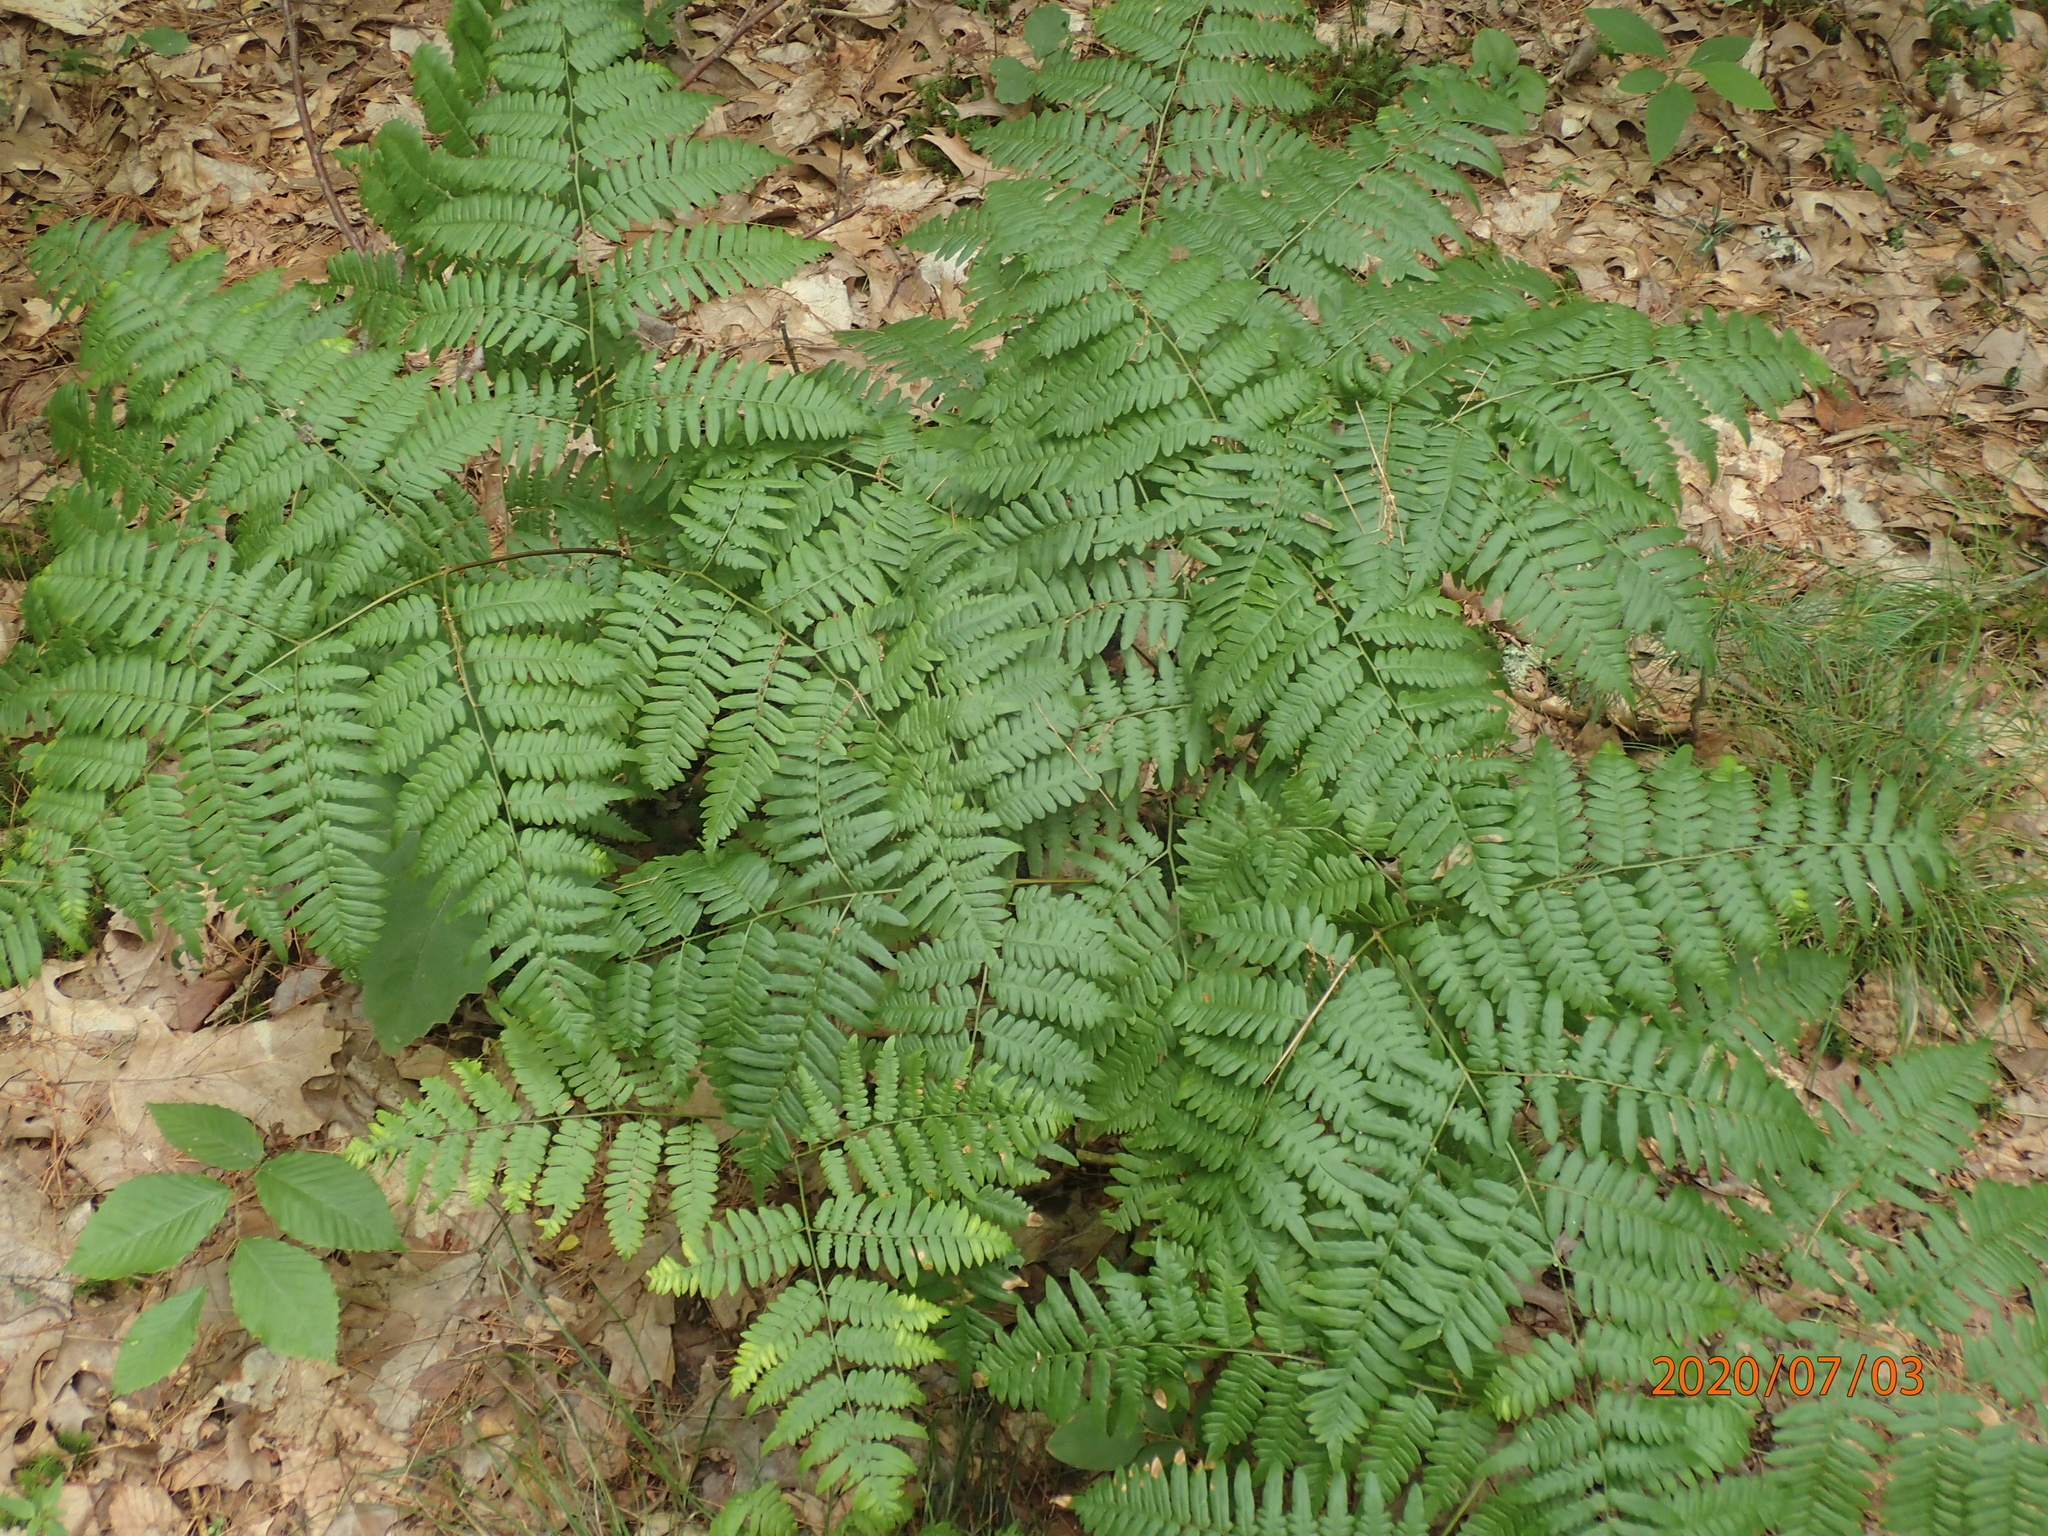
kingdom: Plantae
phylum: Tracheophyta
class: Polypodiopsida
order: Polypodiales
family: Dennstaedtiaceae
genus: Pteridium
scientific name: Pteridium aquilinum
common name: Bracken
